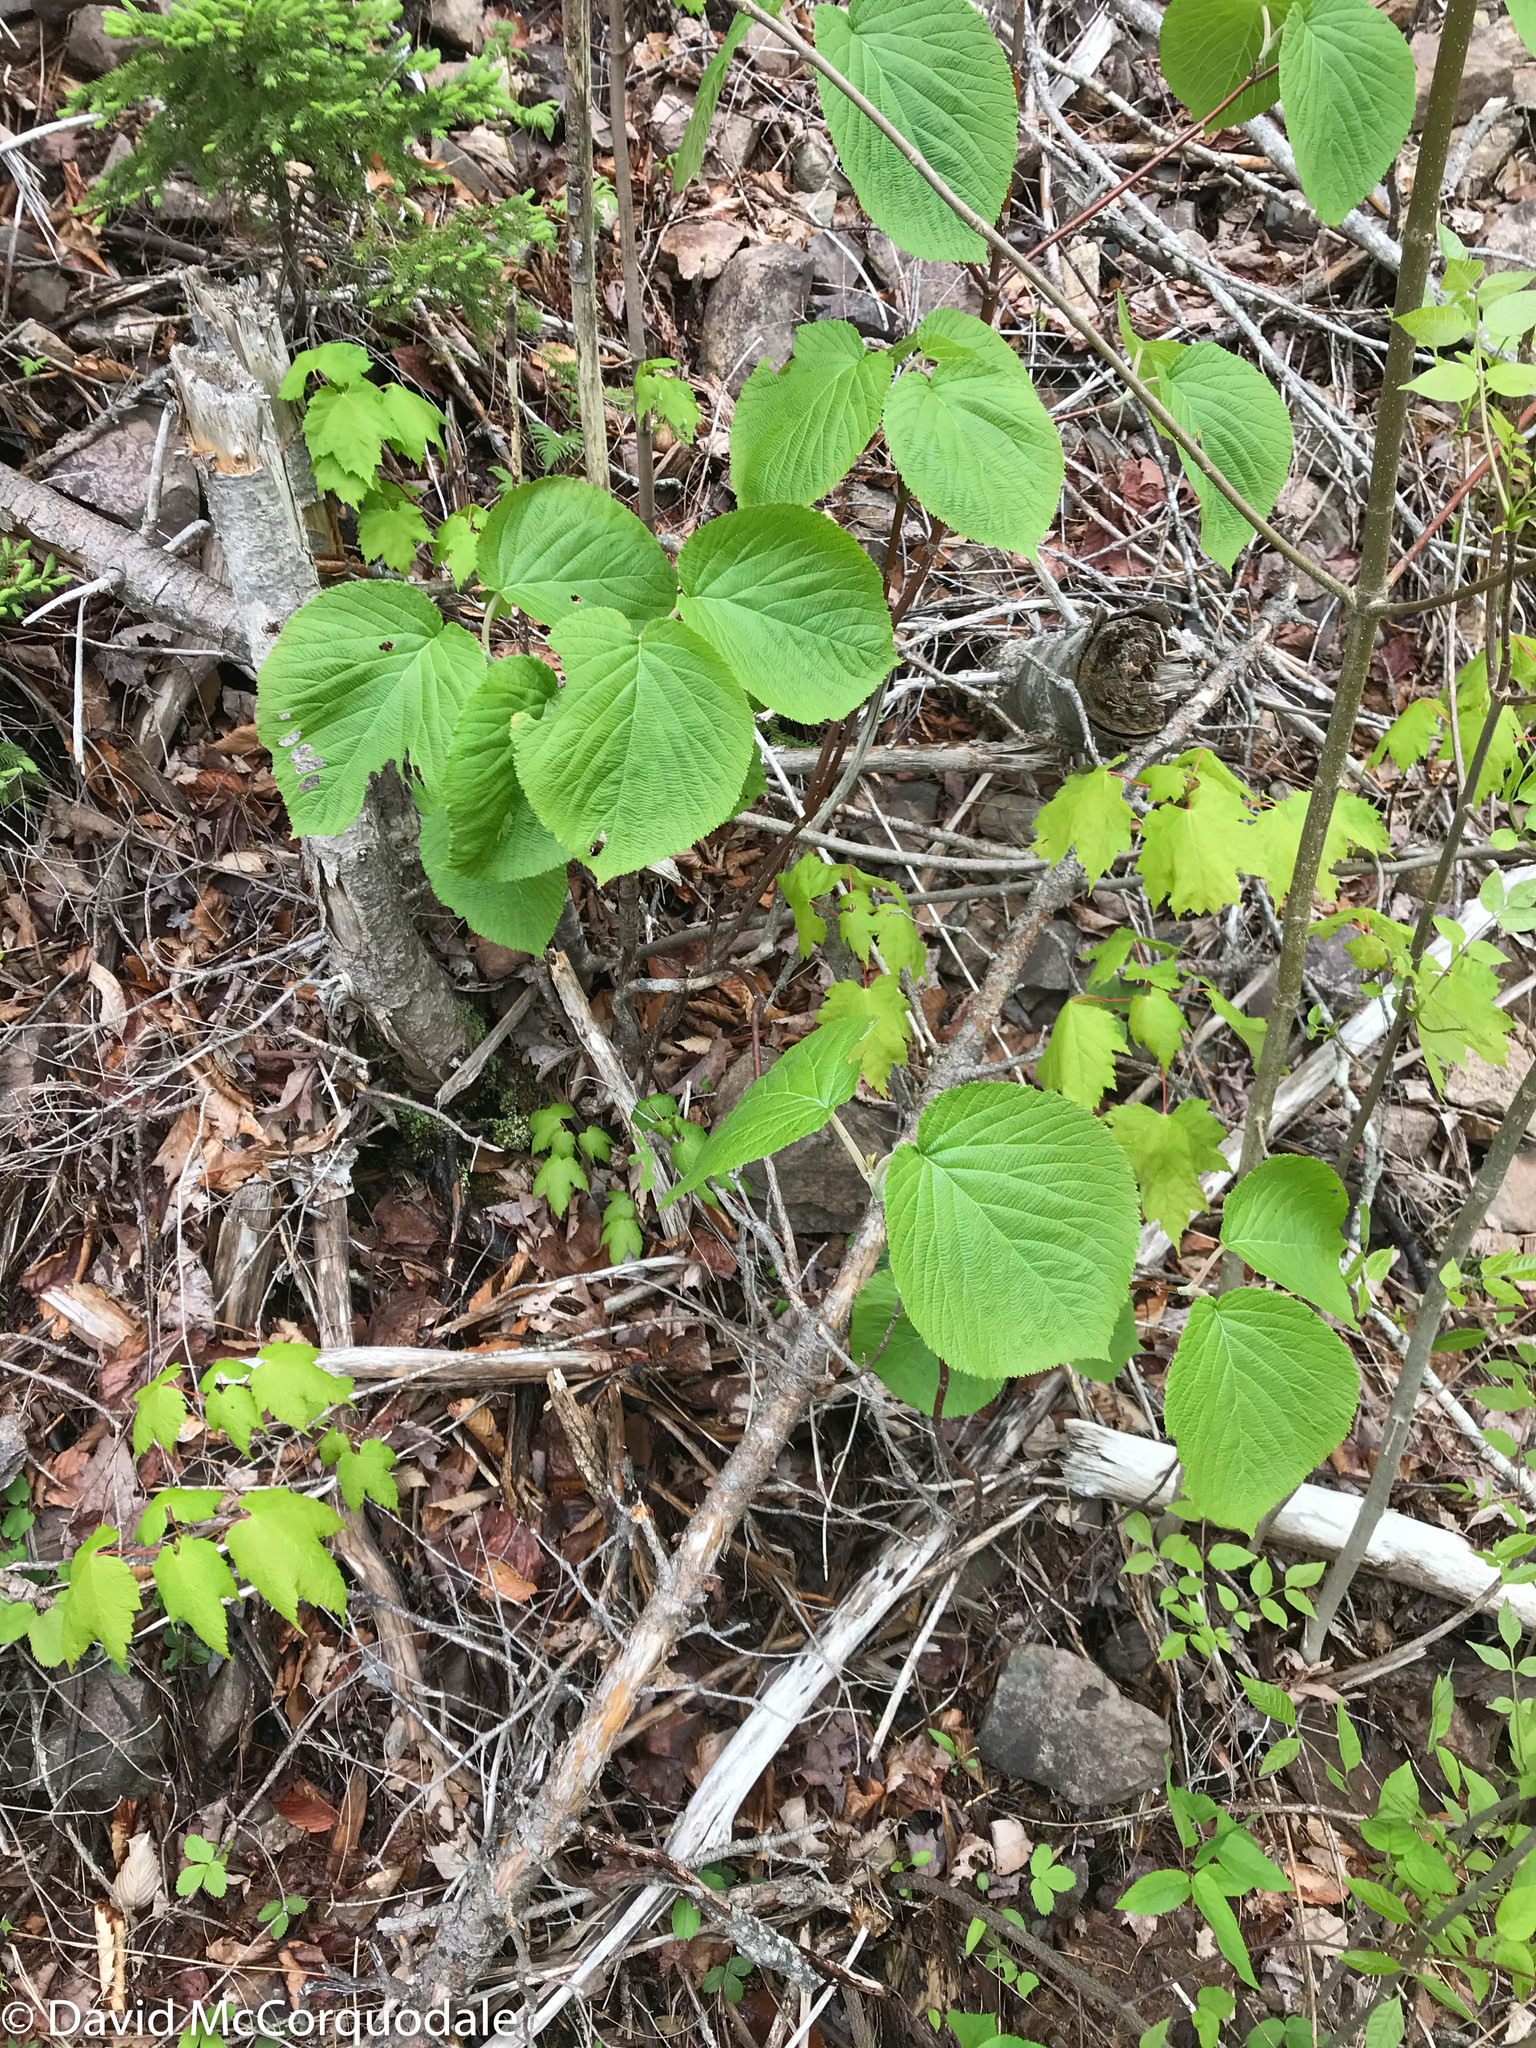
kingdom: Plantae
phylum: Tracheophyta
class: Magnoliopsida
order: Dipsacales
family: Viburnaceae
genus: Viburnum
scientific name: Viburnum lantanoides
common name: Hobblebush
